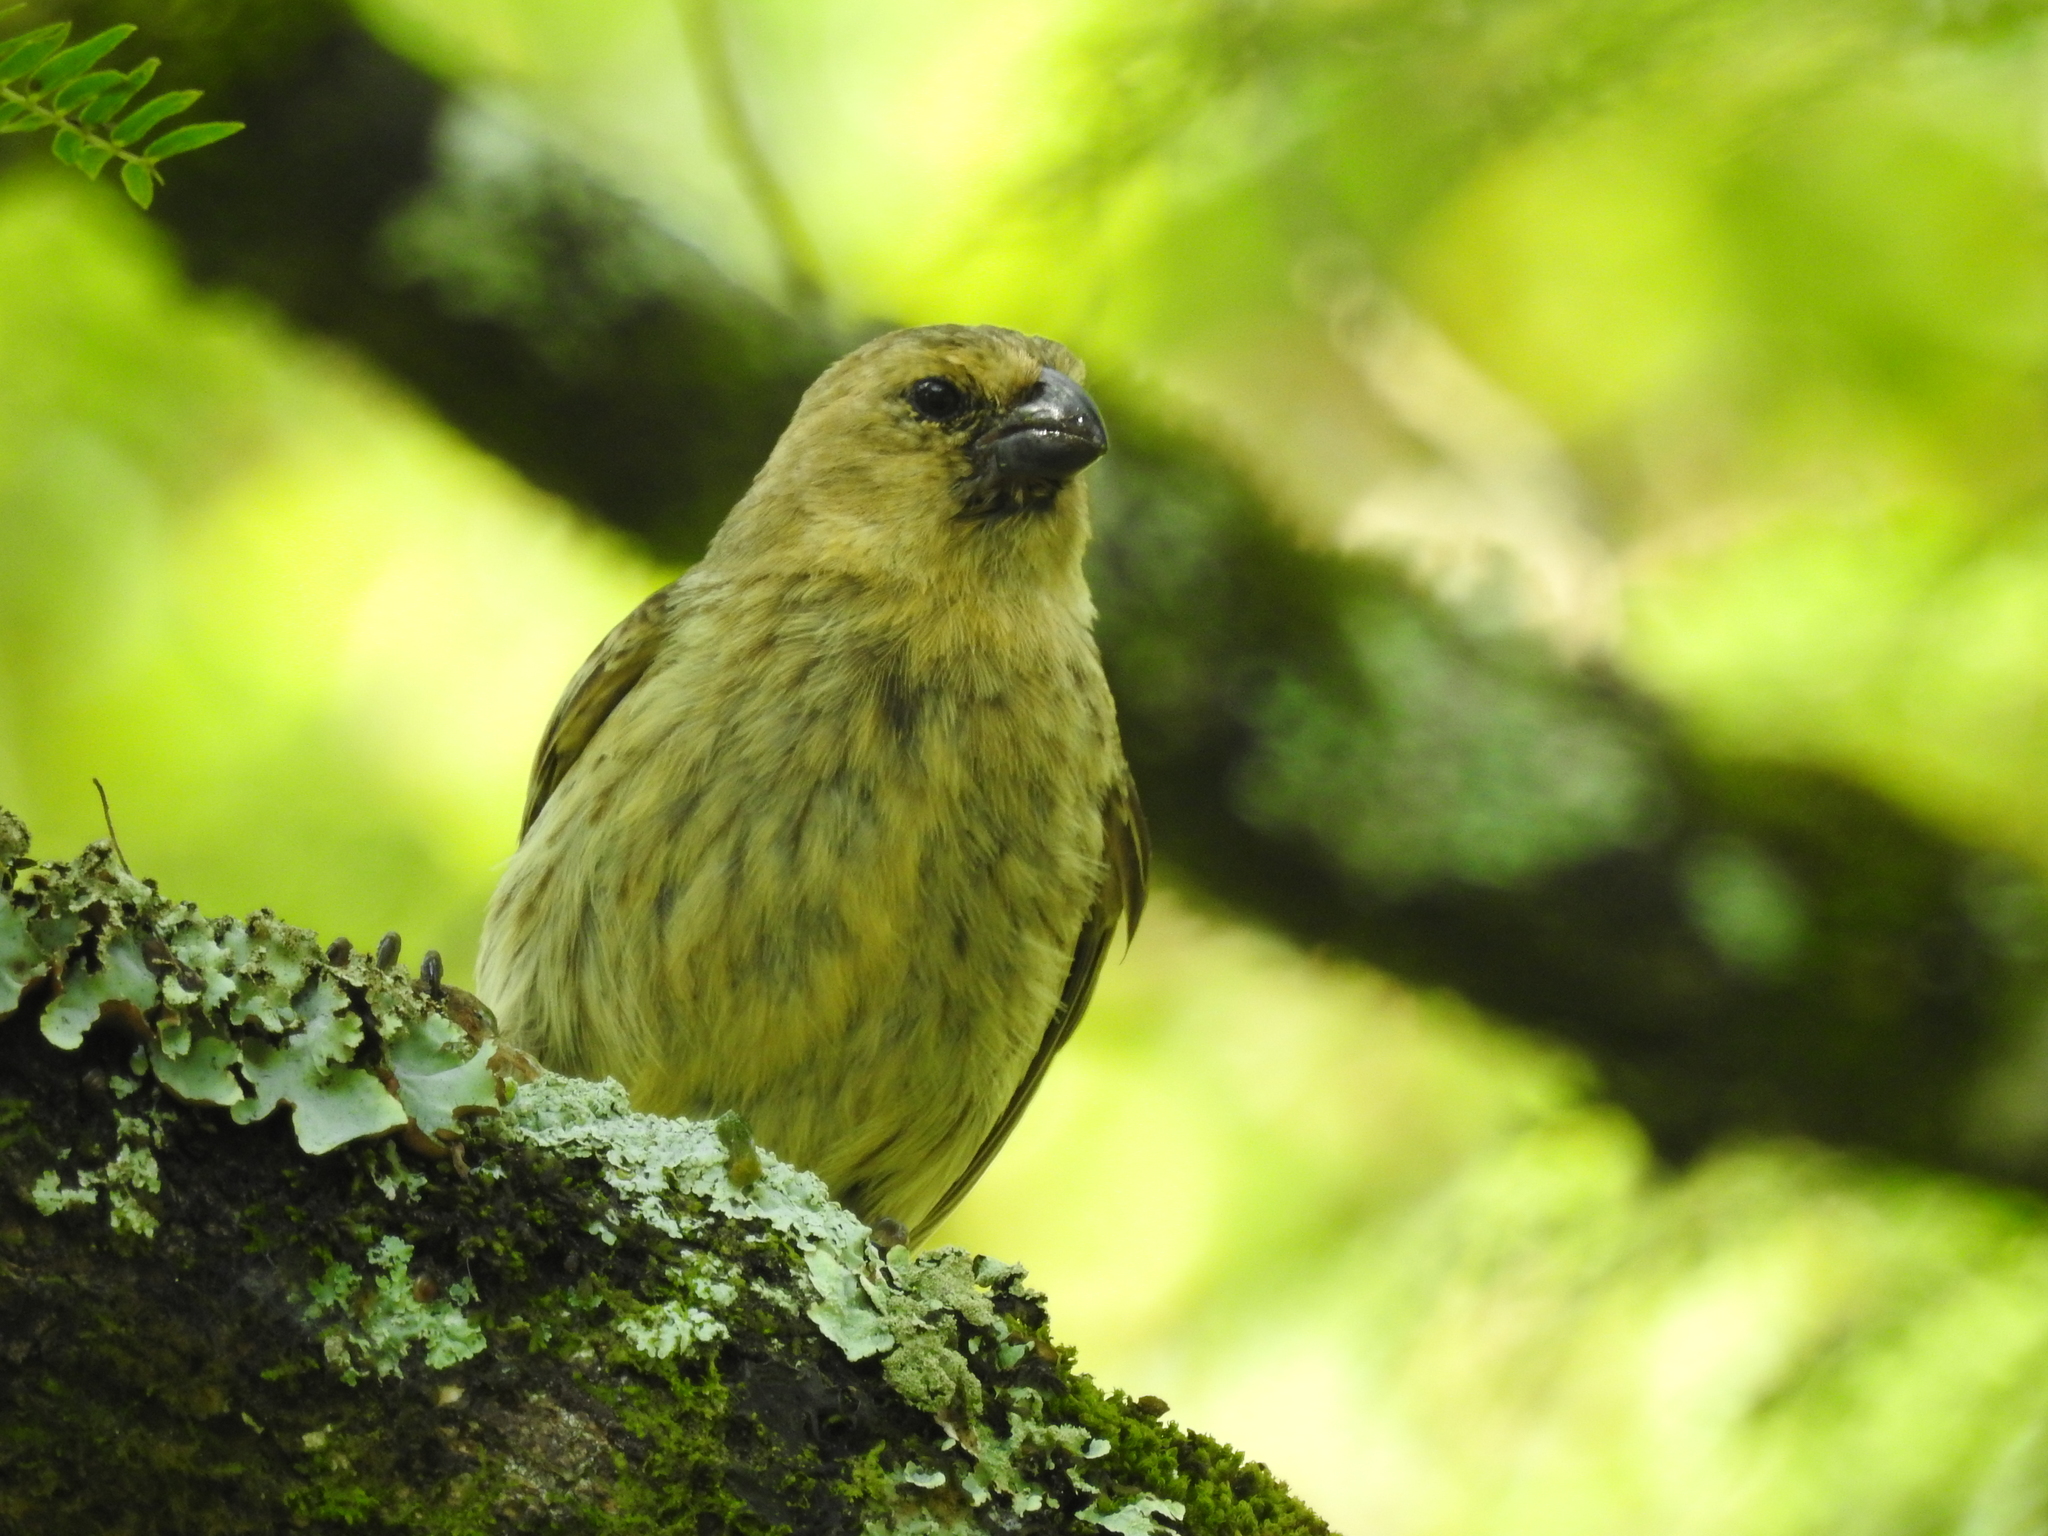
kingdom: Animalia
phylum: Chordata
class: Aves
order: Passeriformes
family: Thraupidae
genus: Camarhynchus
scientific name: Camarhynchus parvulus
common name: Small tree finch
